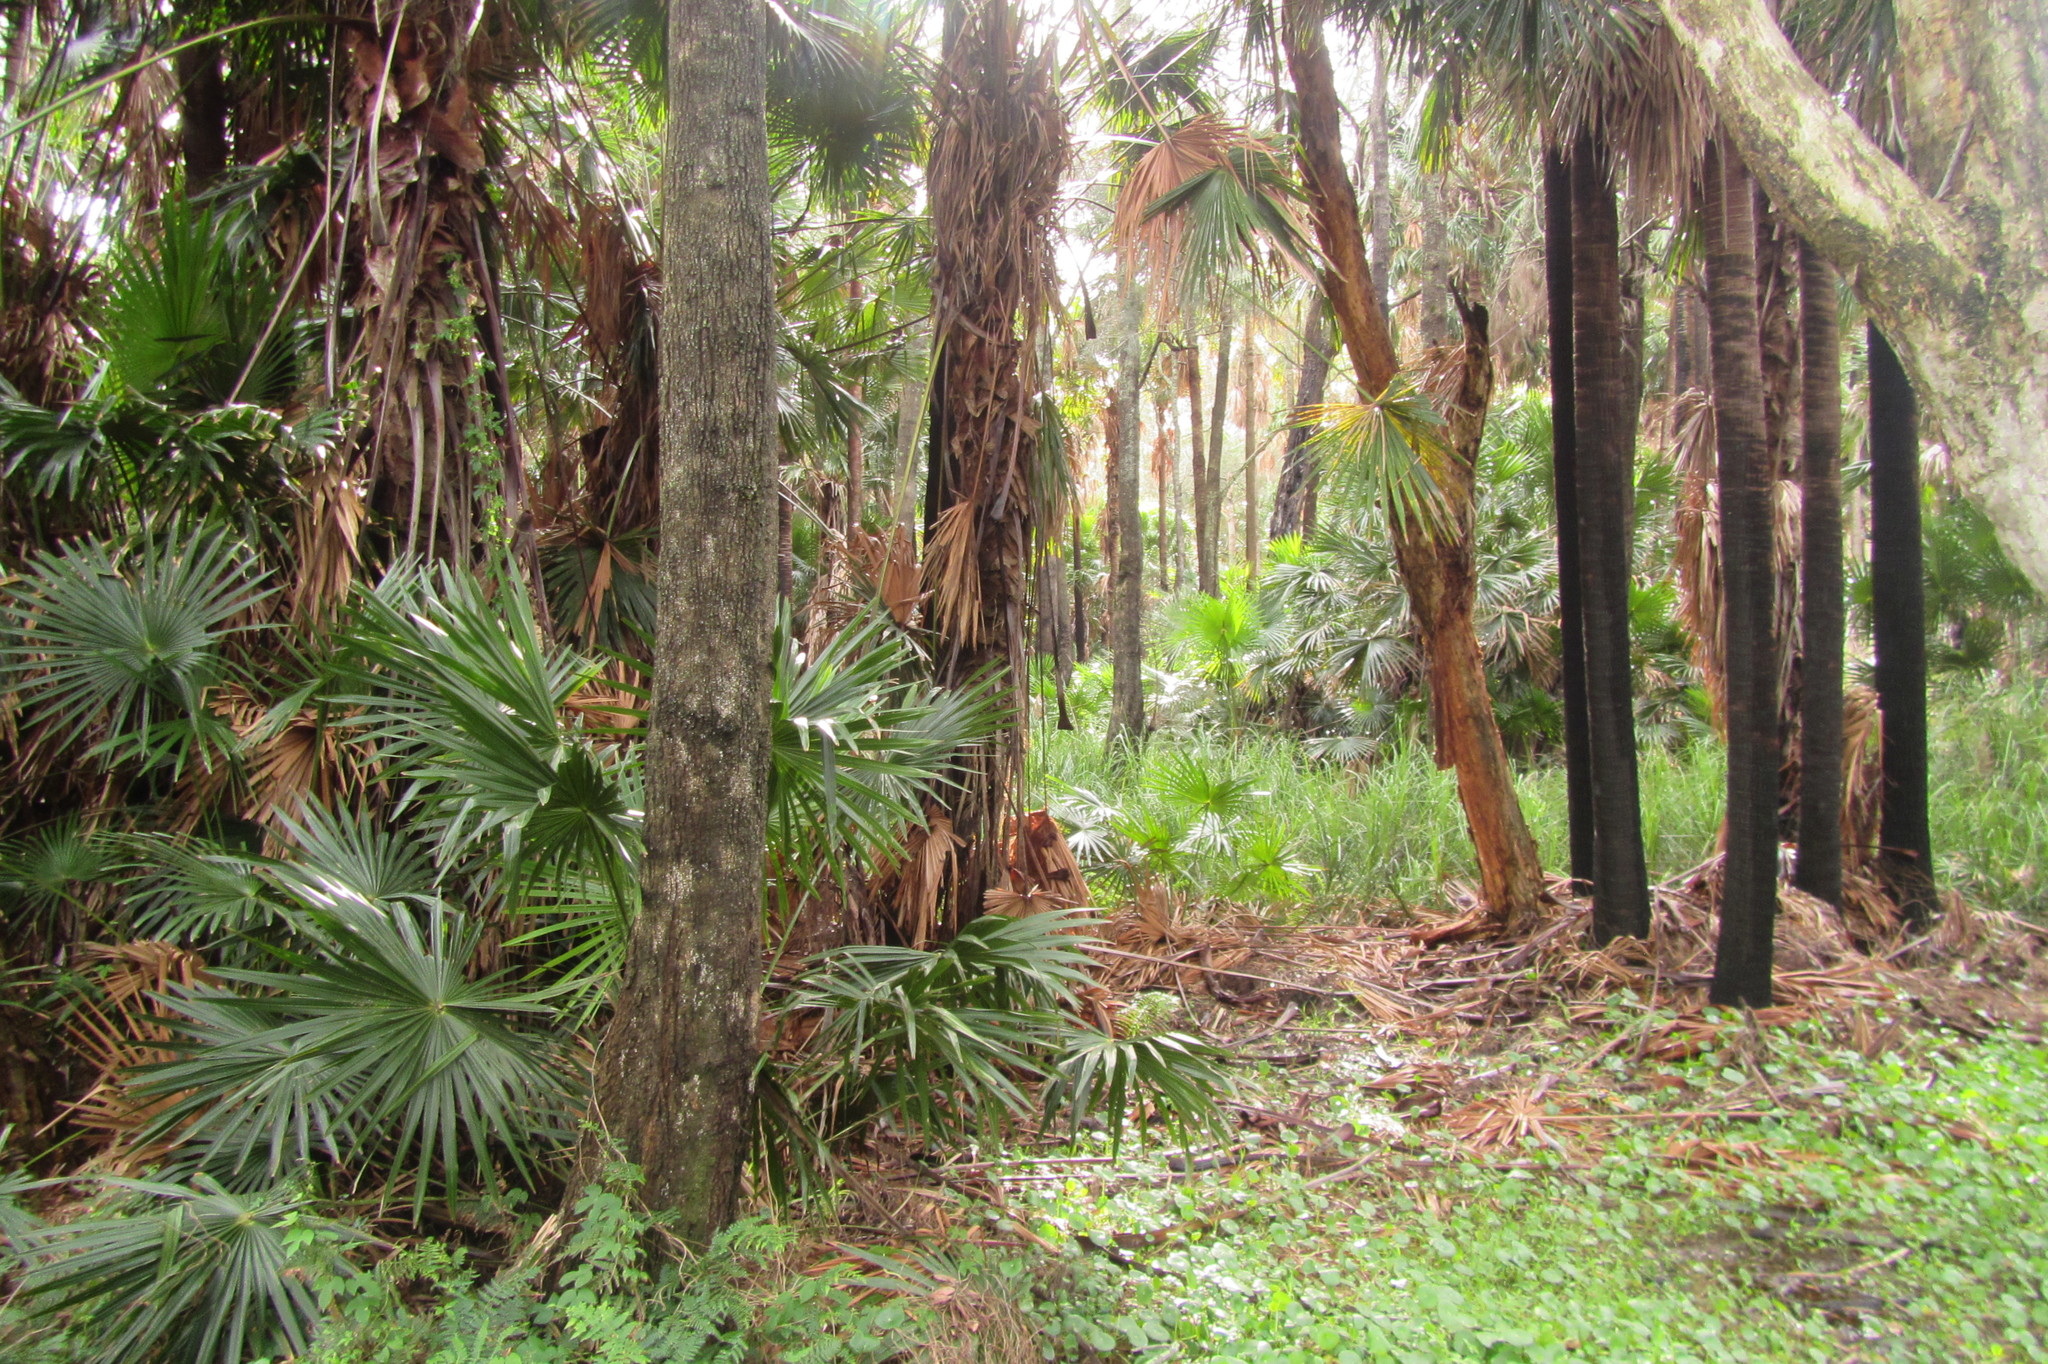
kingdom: Plantae
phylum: Tracheophyta
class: Liliopsida
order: Arecales
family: Arecaceae
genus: Livistona
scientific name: Livistona australis
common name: Cabbage fan palm
